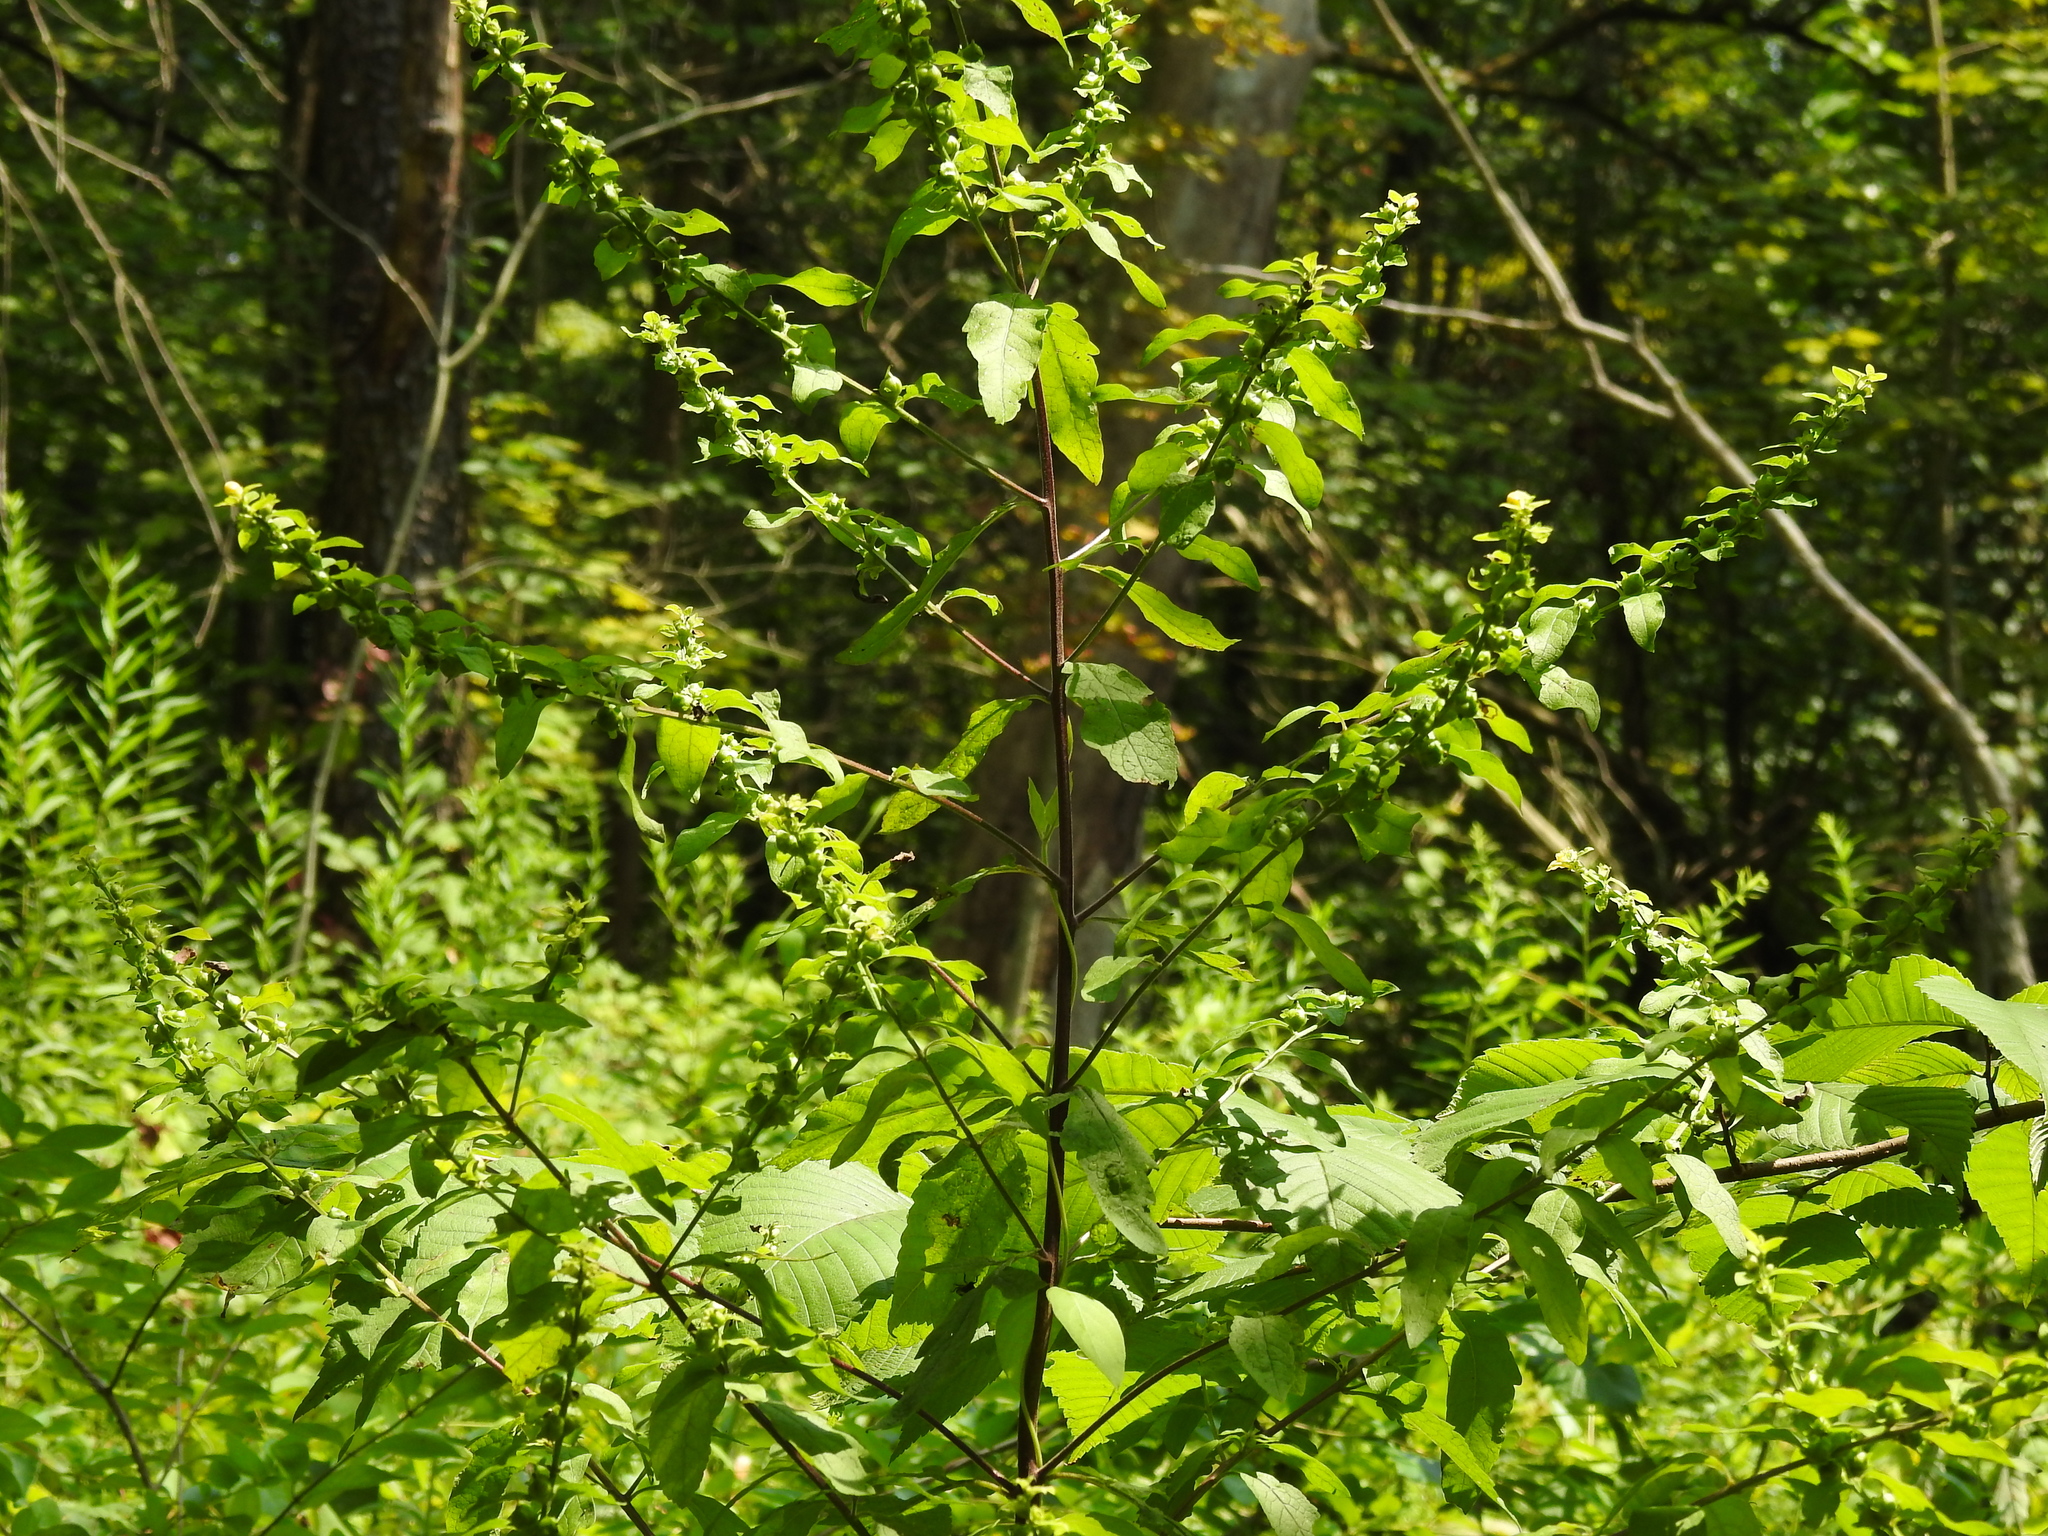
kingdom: Plantae
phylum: Tracheophyta
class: Magnoliopsida
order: Lamiales
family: Orobanchaceae
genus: Dasistoma
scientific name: Dasistoma macrophyllum
